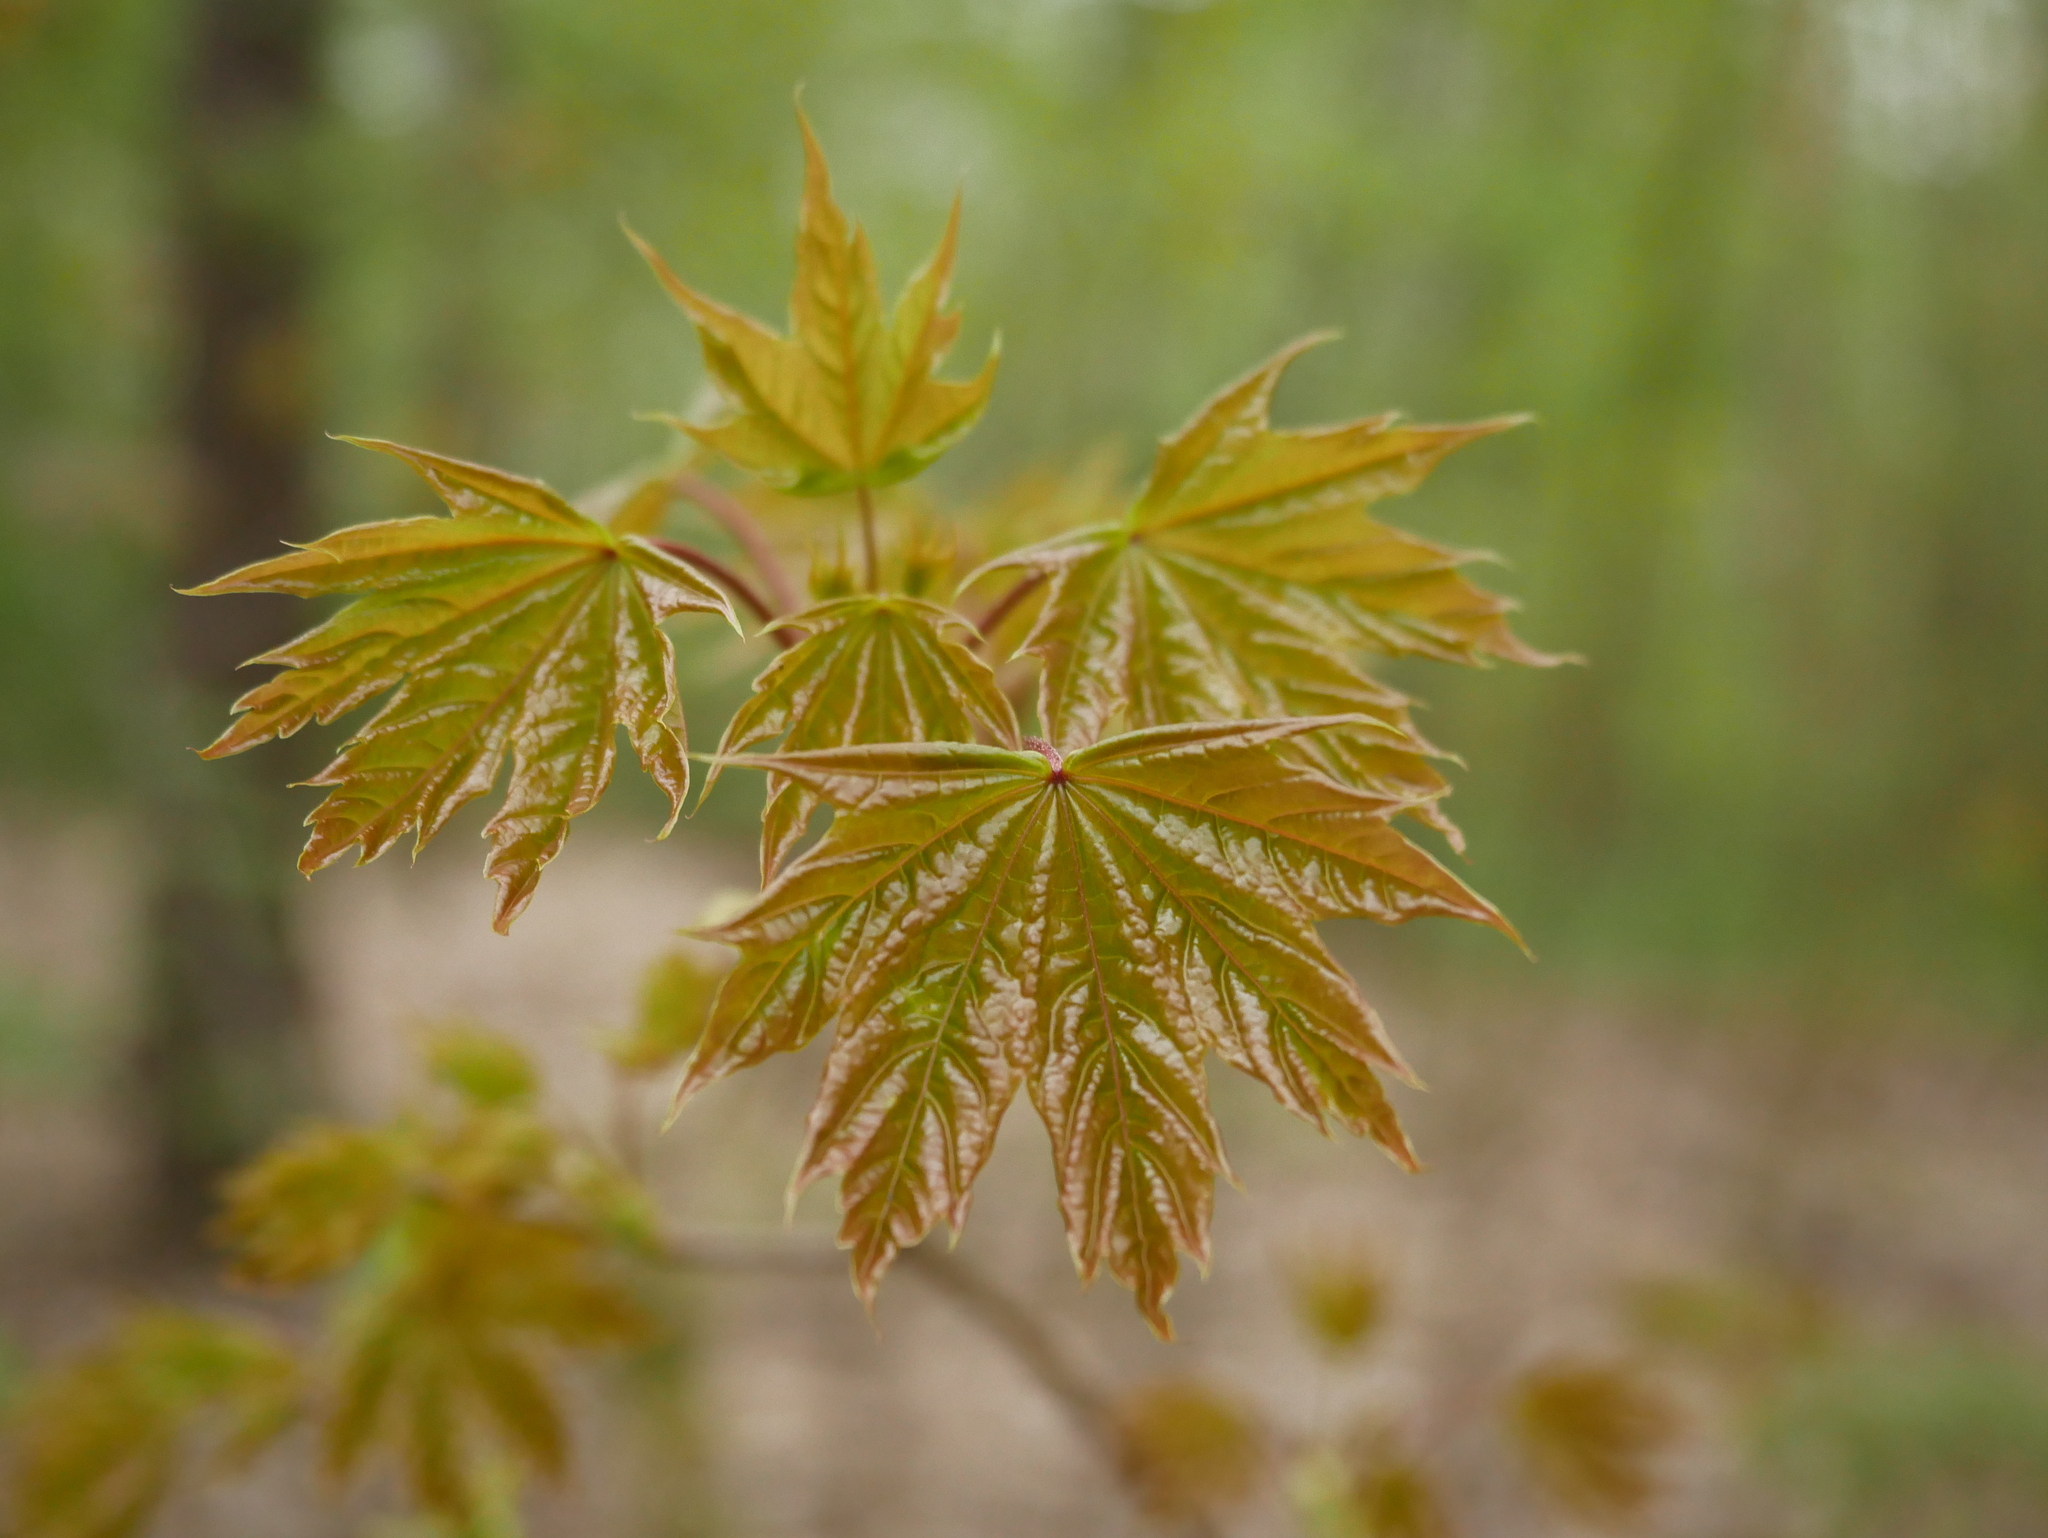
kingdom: Plantae
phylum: Tracheophyta
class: Magnoliopsida
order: Sapindales
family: Sapindaceae
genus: Acer
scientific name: Acer platanoides
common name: Norway maple
